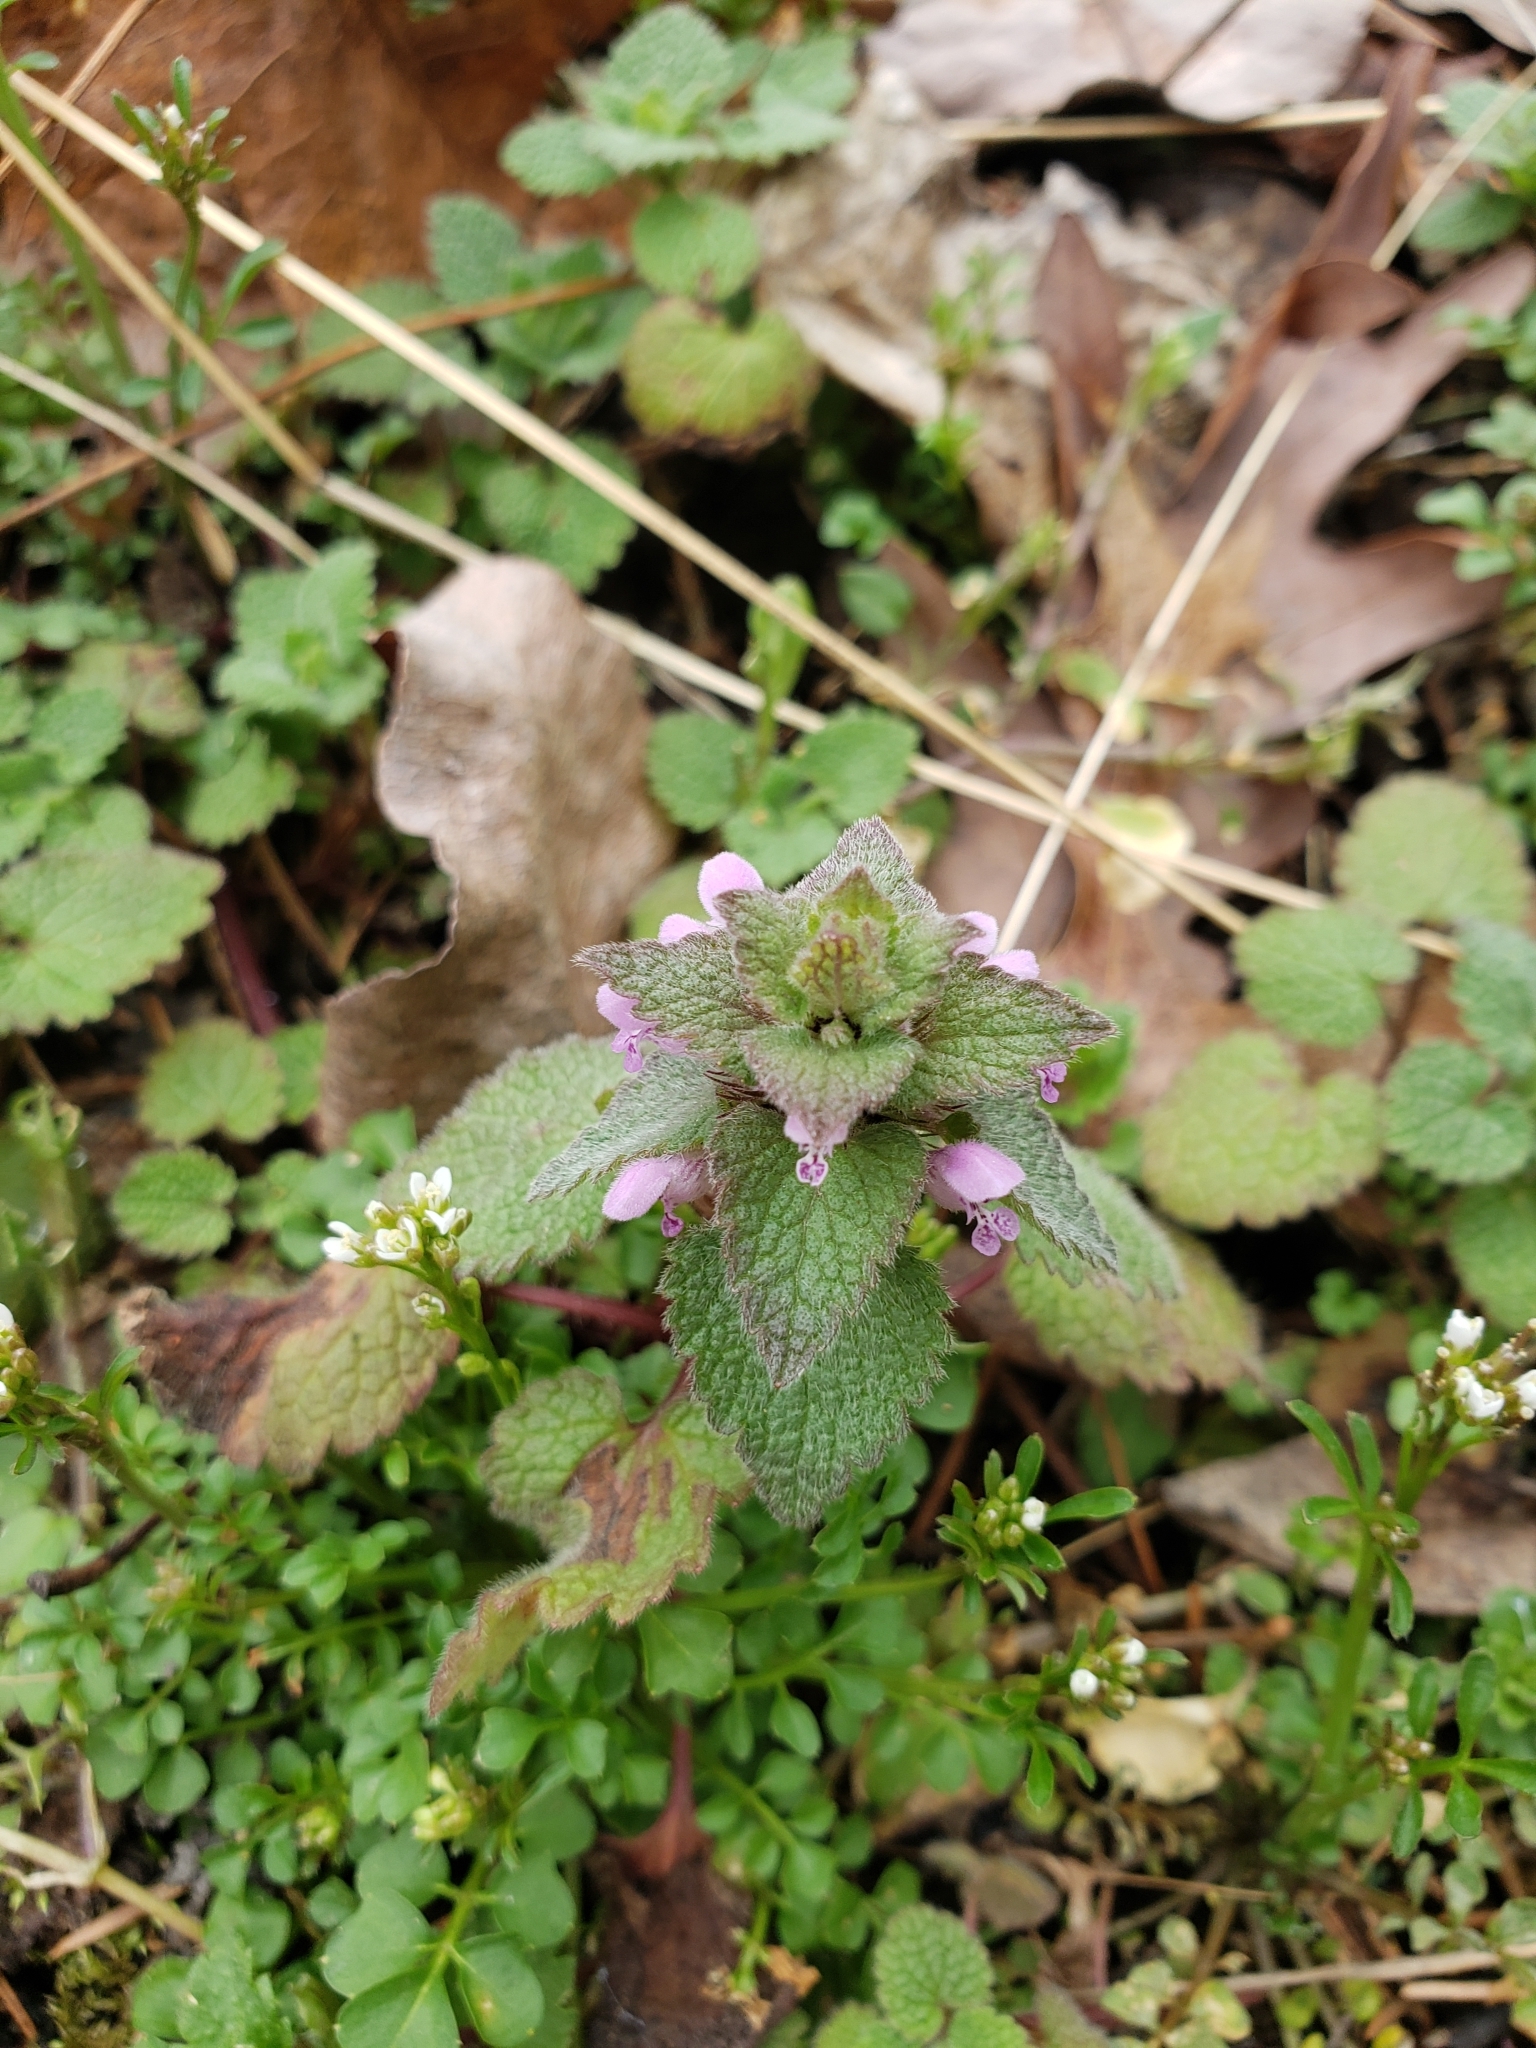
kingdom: Plantae
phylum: Tracheophyta
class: Magnoliopsida
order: Lamiales
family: Lamiaceae
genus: Lamium
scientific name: Lamium purpureum
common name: Red dead-nettle
